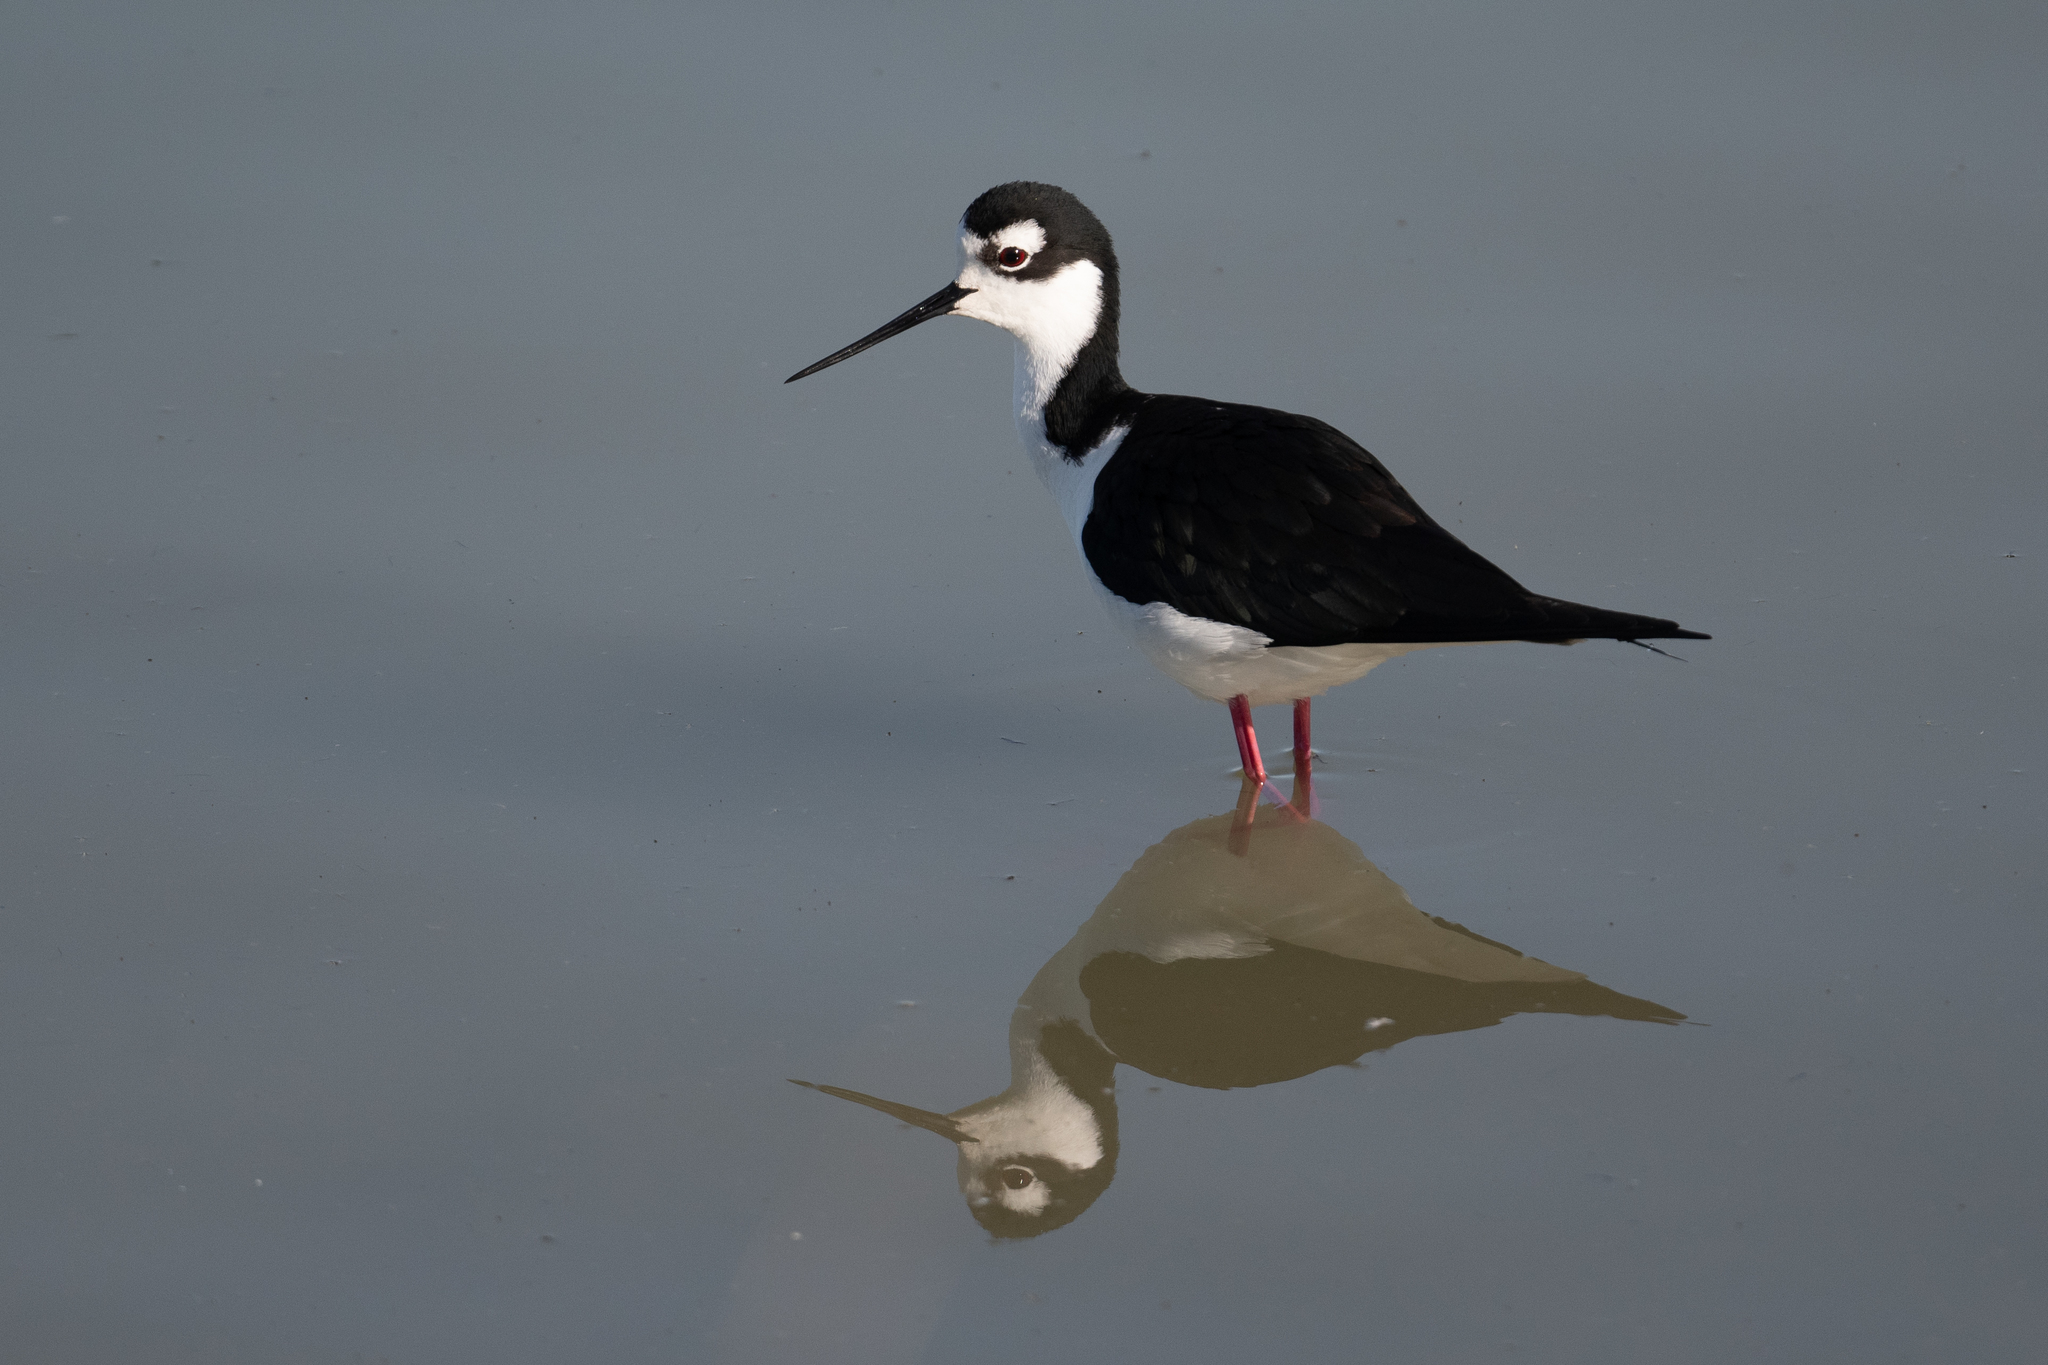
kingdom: Animalia
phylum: Chordata
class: Aves
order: Charadriiformes
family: Recurvirostridae
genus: Himantopus
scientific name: Himantopus mexicanus
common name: Black-necked stilt
